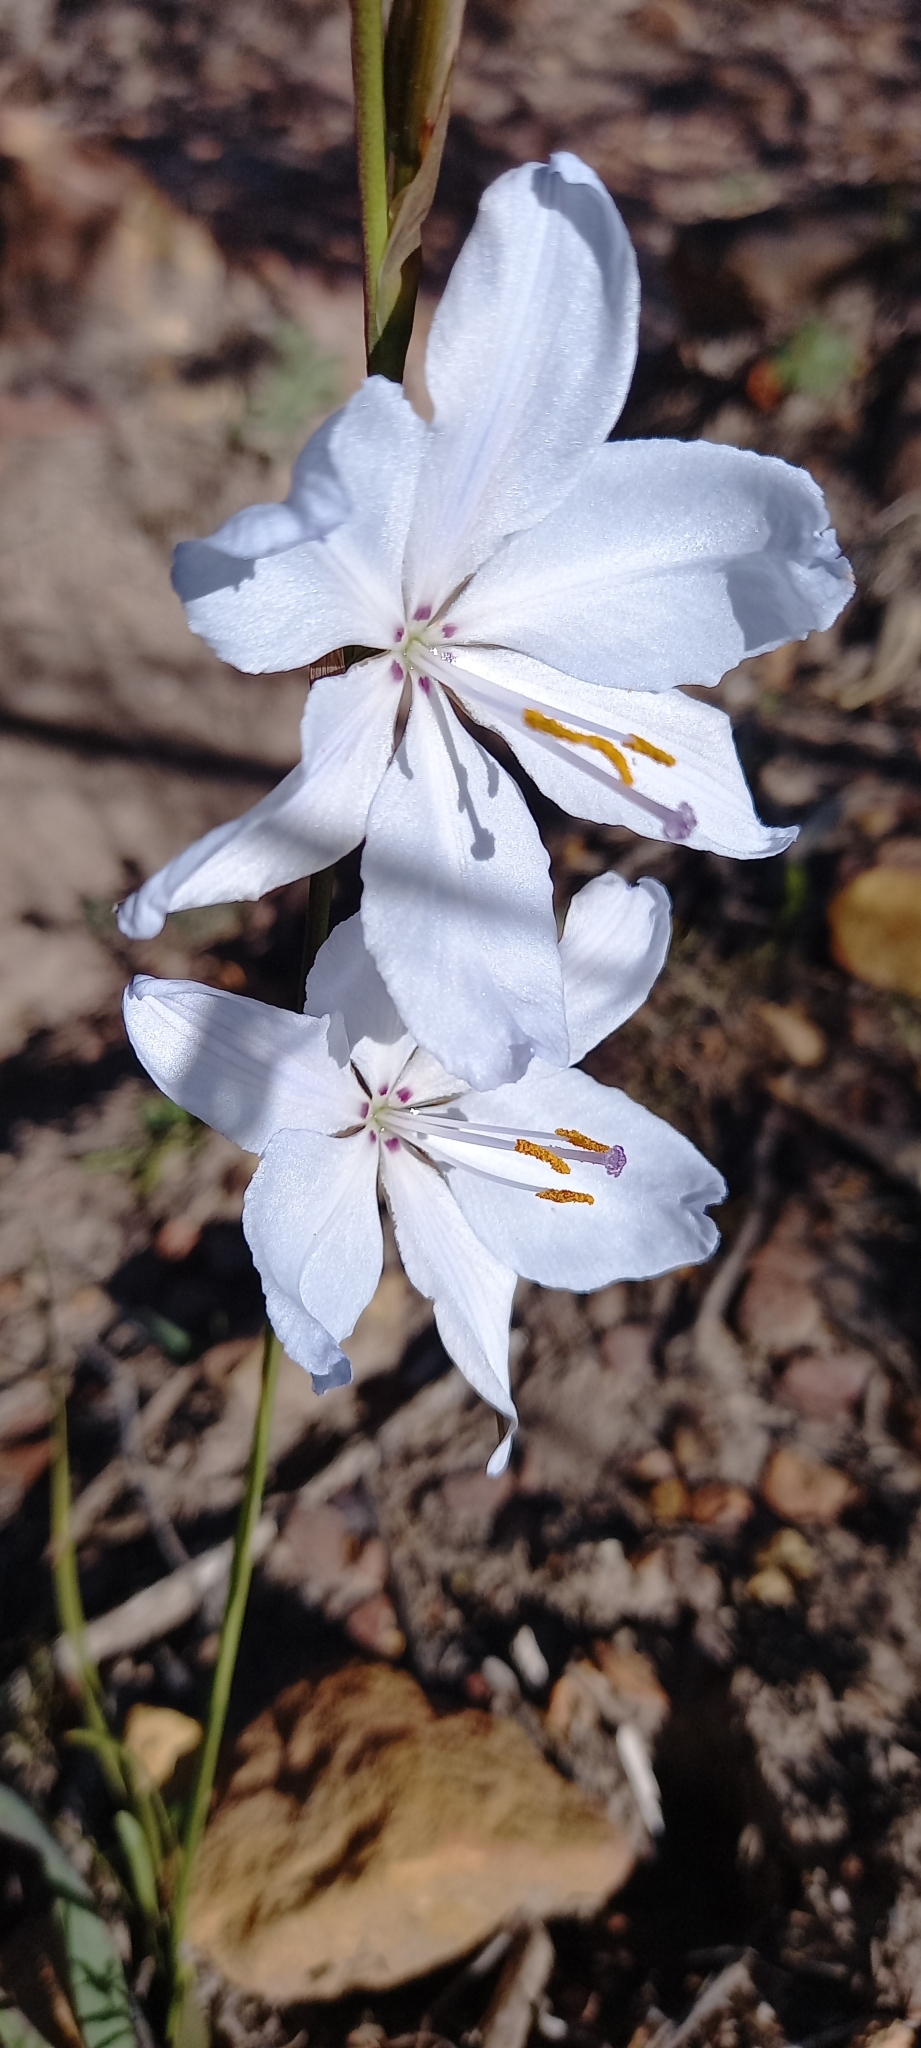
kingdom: Plantae
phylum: Tracheophyta
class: Liliopsida
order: Asparagales
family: Iridaceae
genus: Aristea
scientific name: Aristea spiralis
